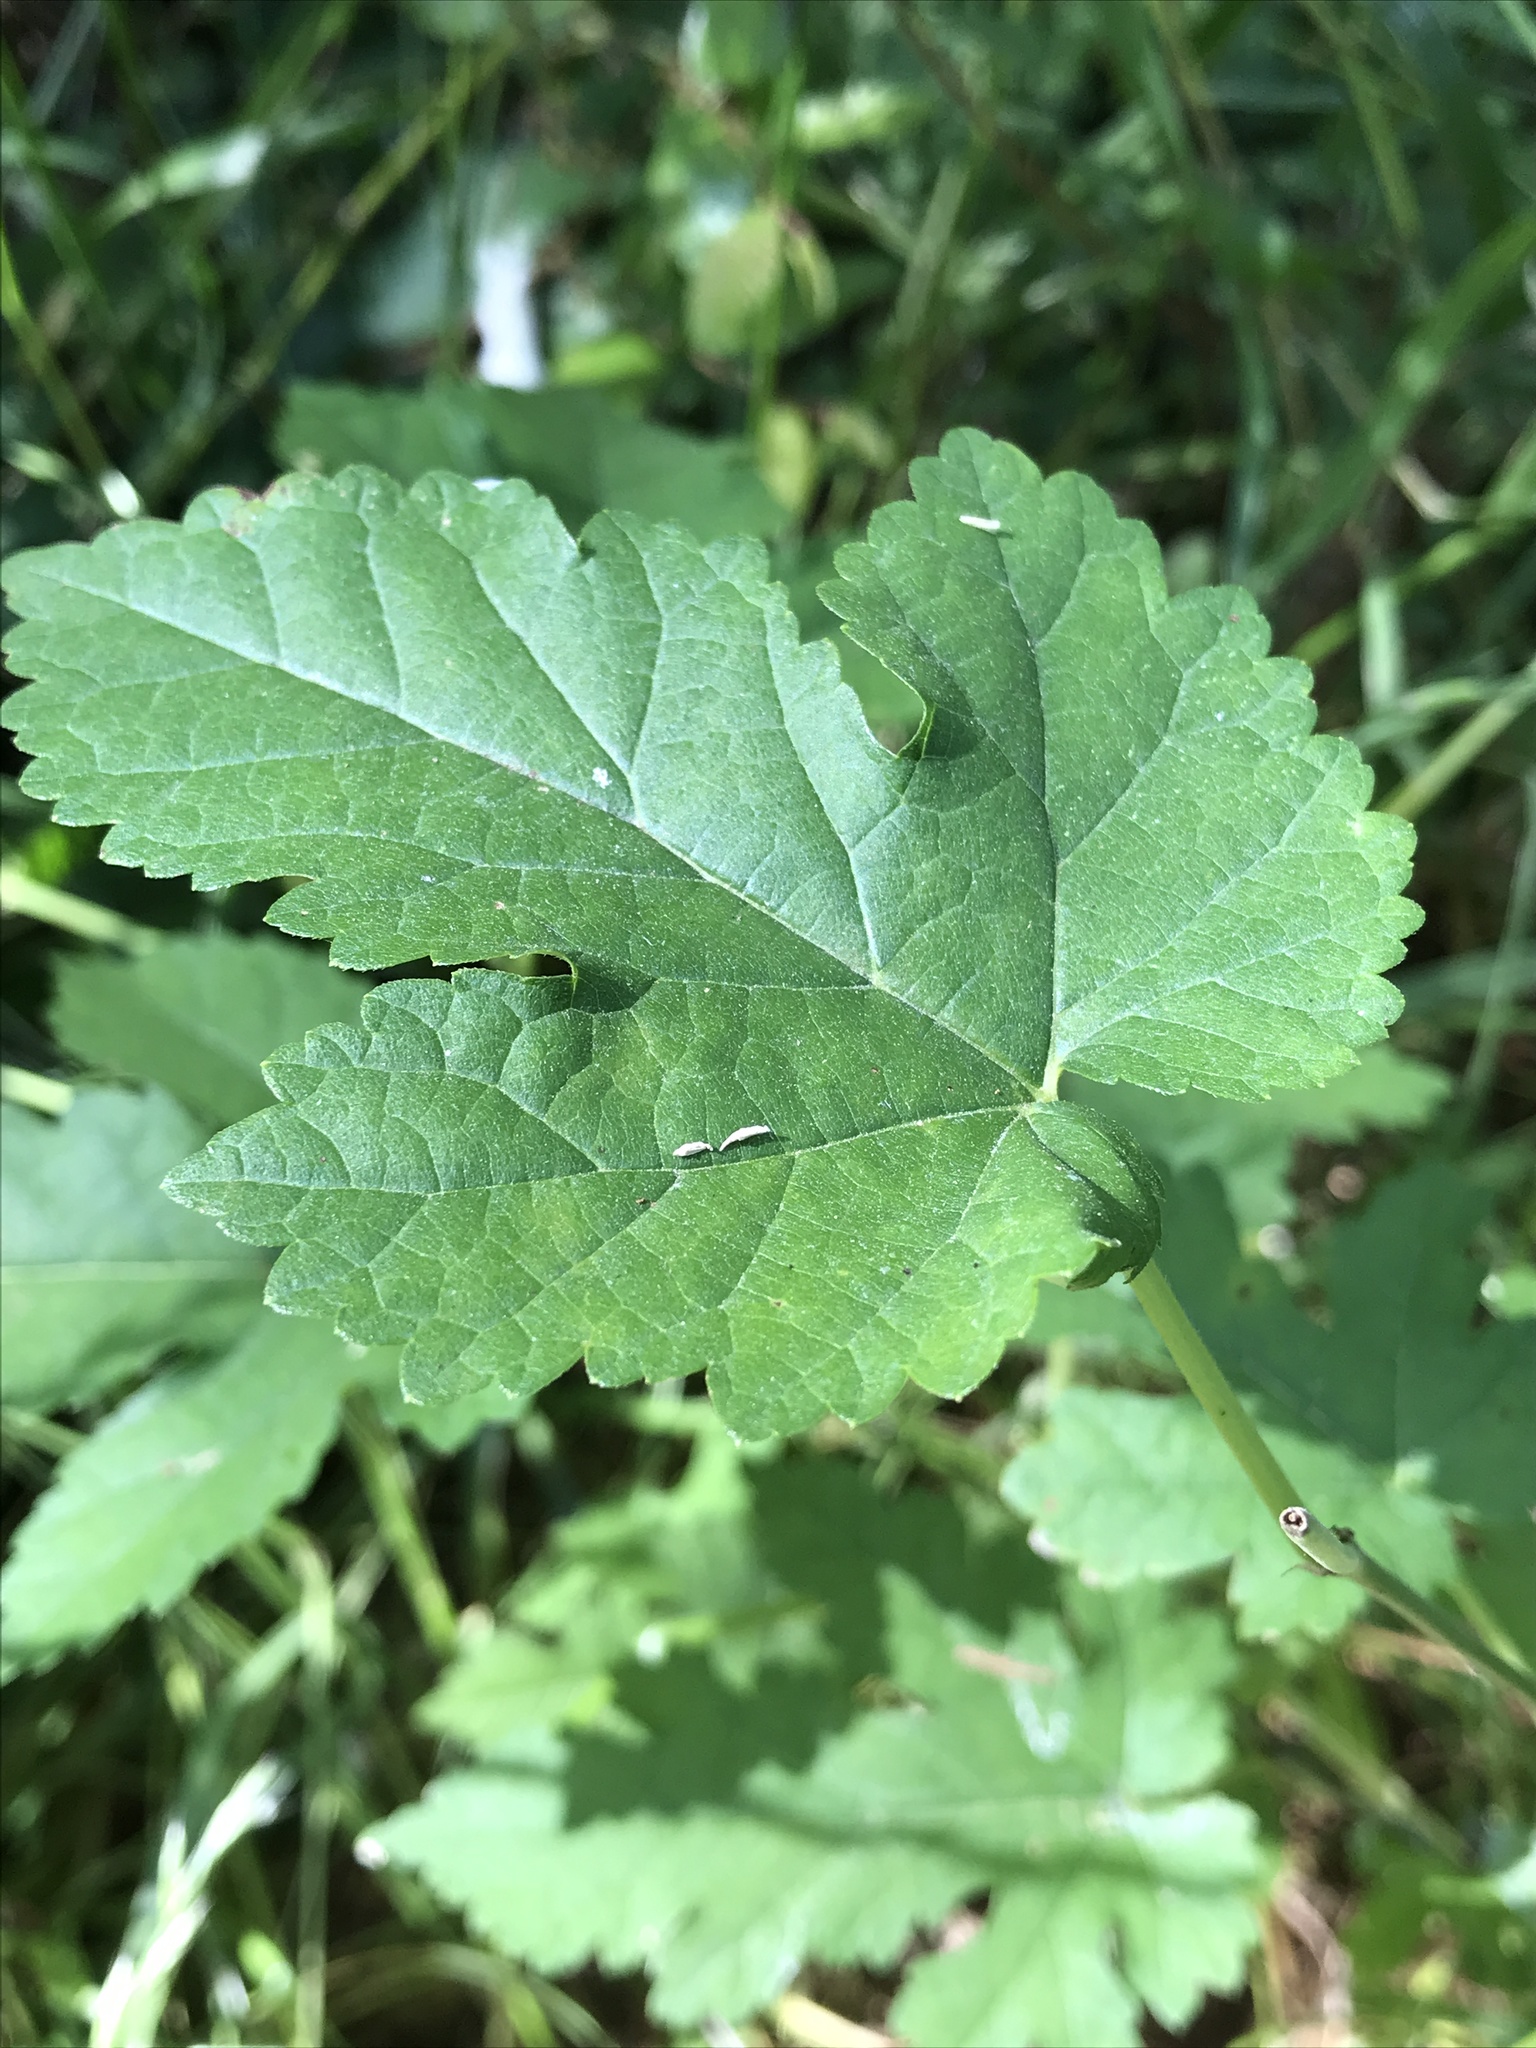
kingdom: Plantae
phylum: Tracheophyta
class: Magnoliopsida
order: Rosales
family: Moraceae
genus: Morus
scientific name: Morus alba
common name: White mulberry
